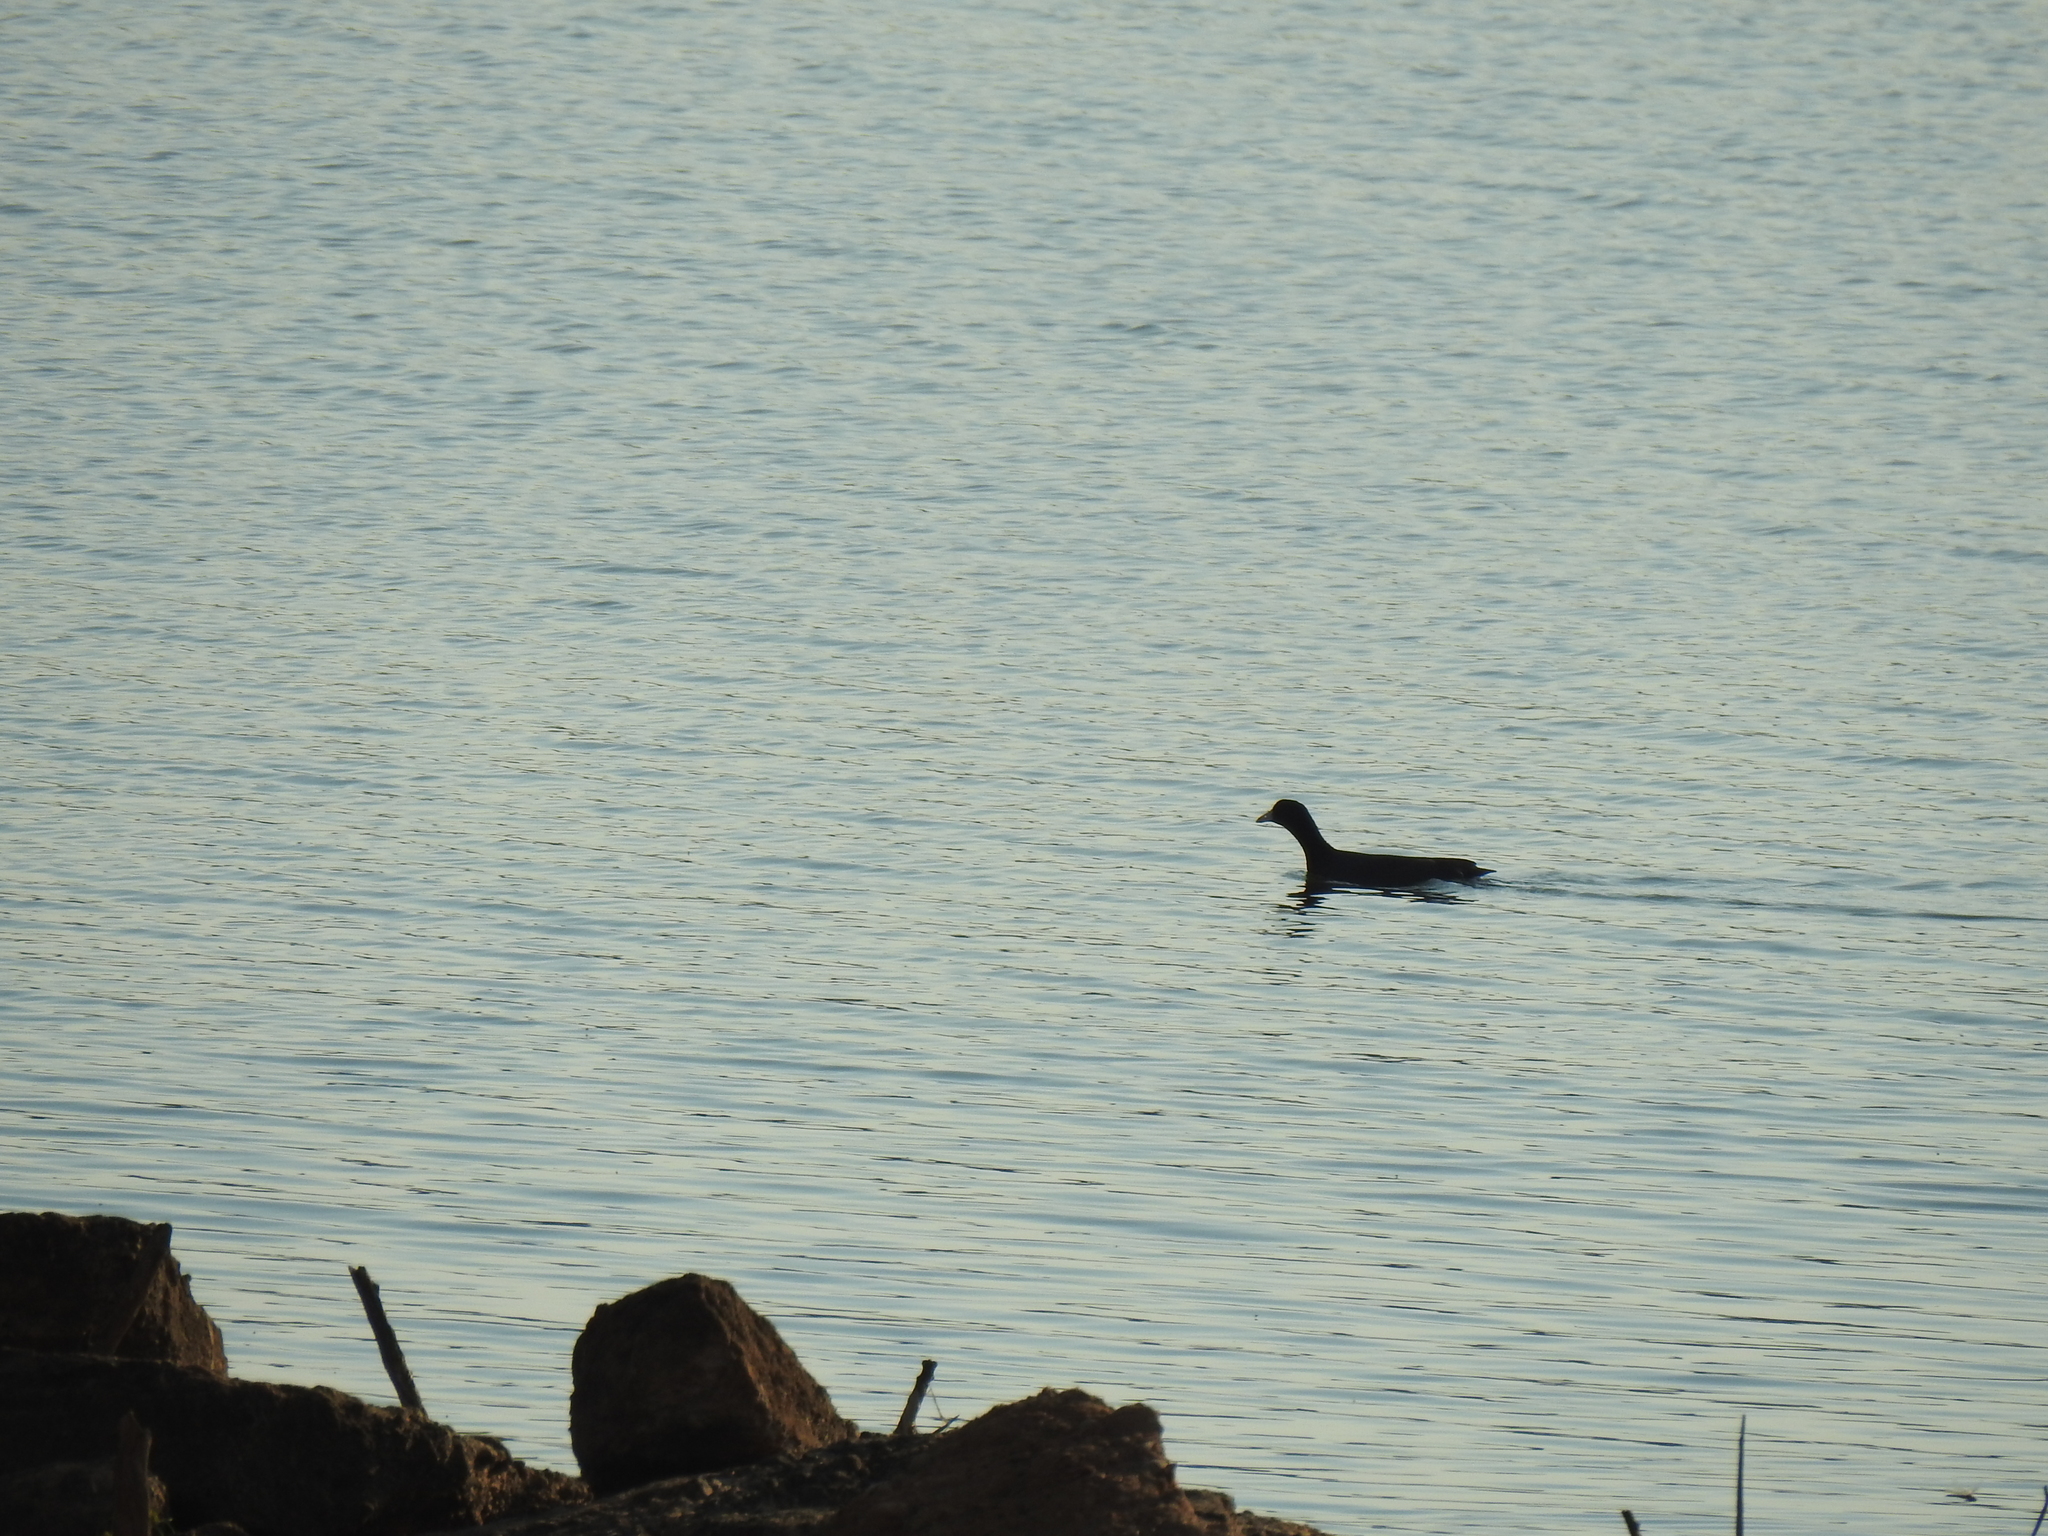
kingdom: Animalia
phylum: Chordata
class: Aves
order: Gruiformes
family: Rallidae
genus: Fulica
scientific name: Fulica americana
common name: American coot
